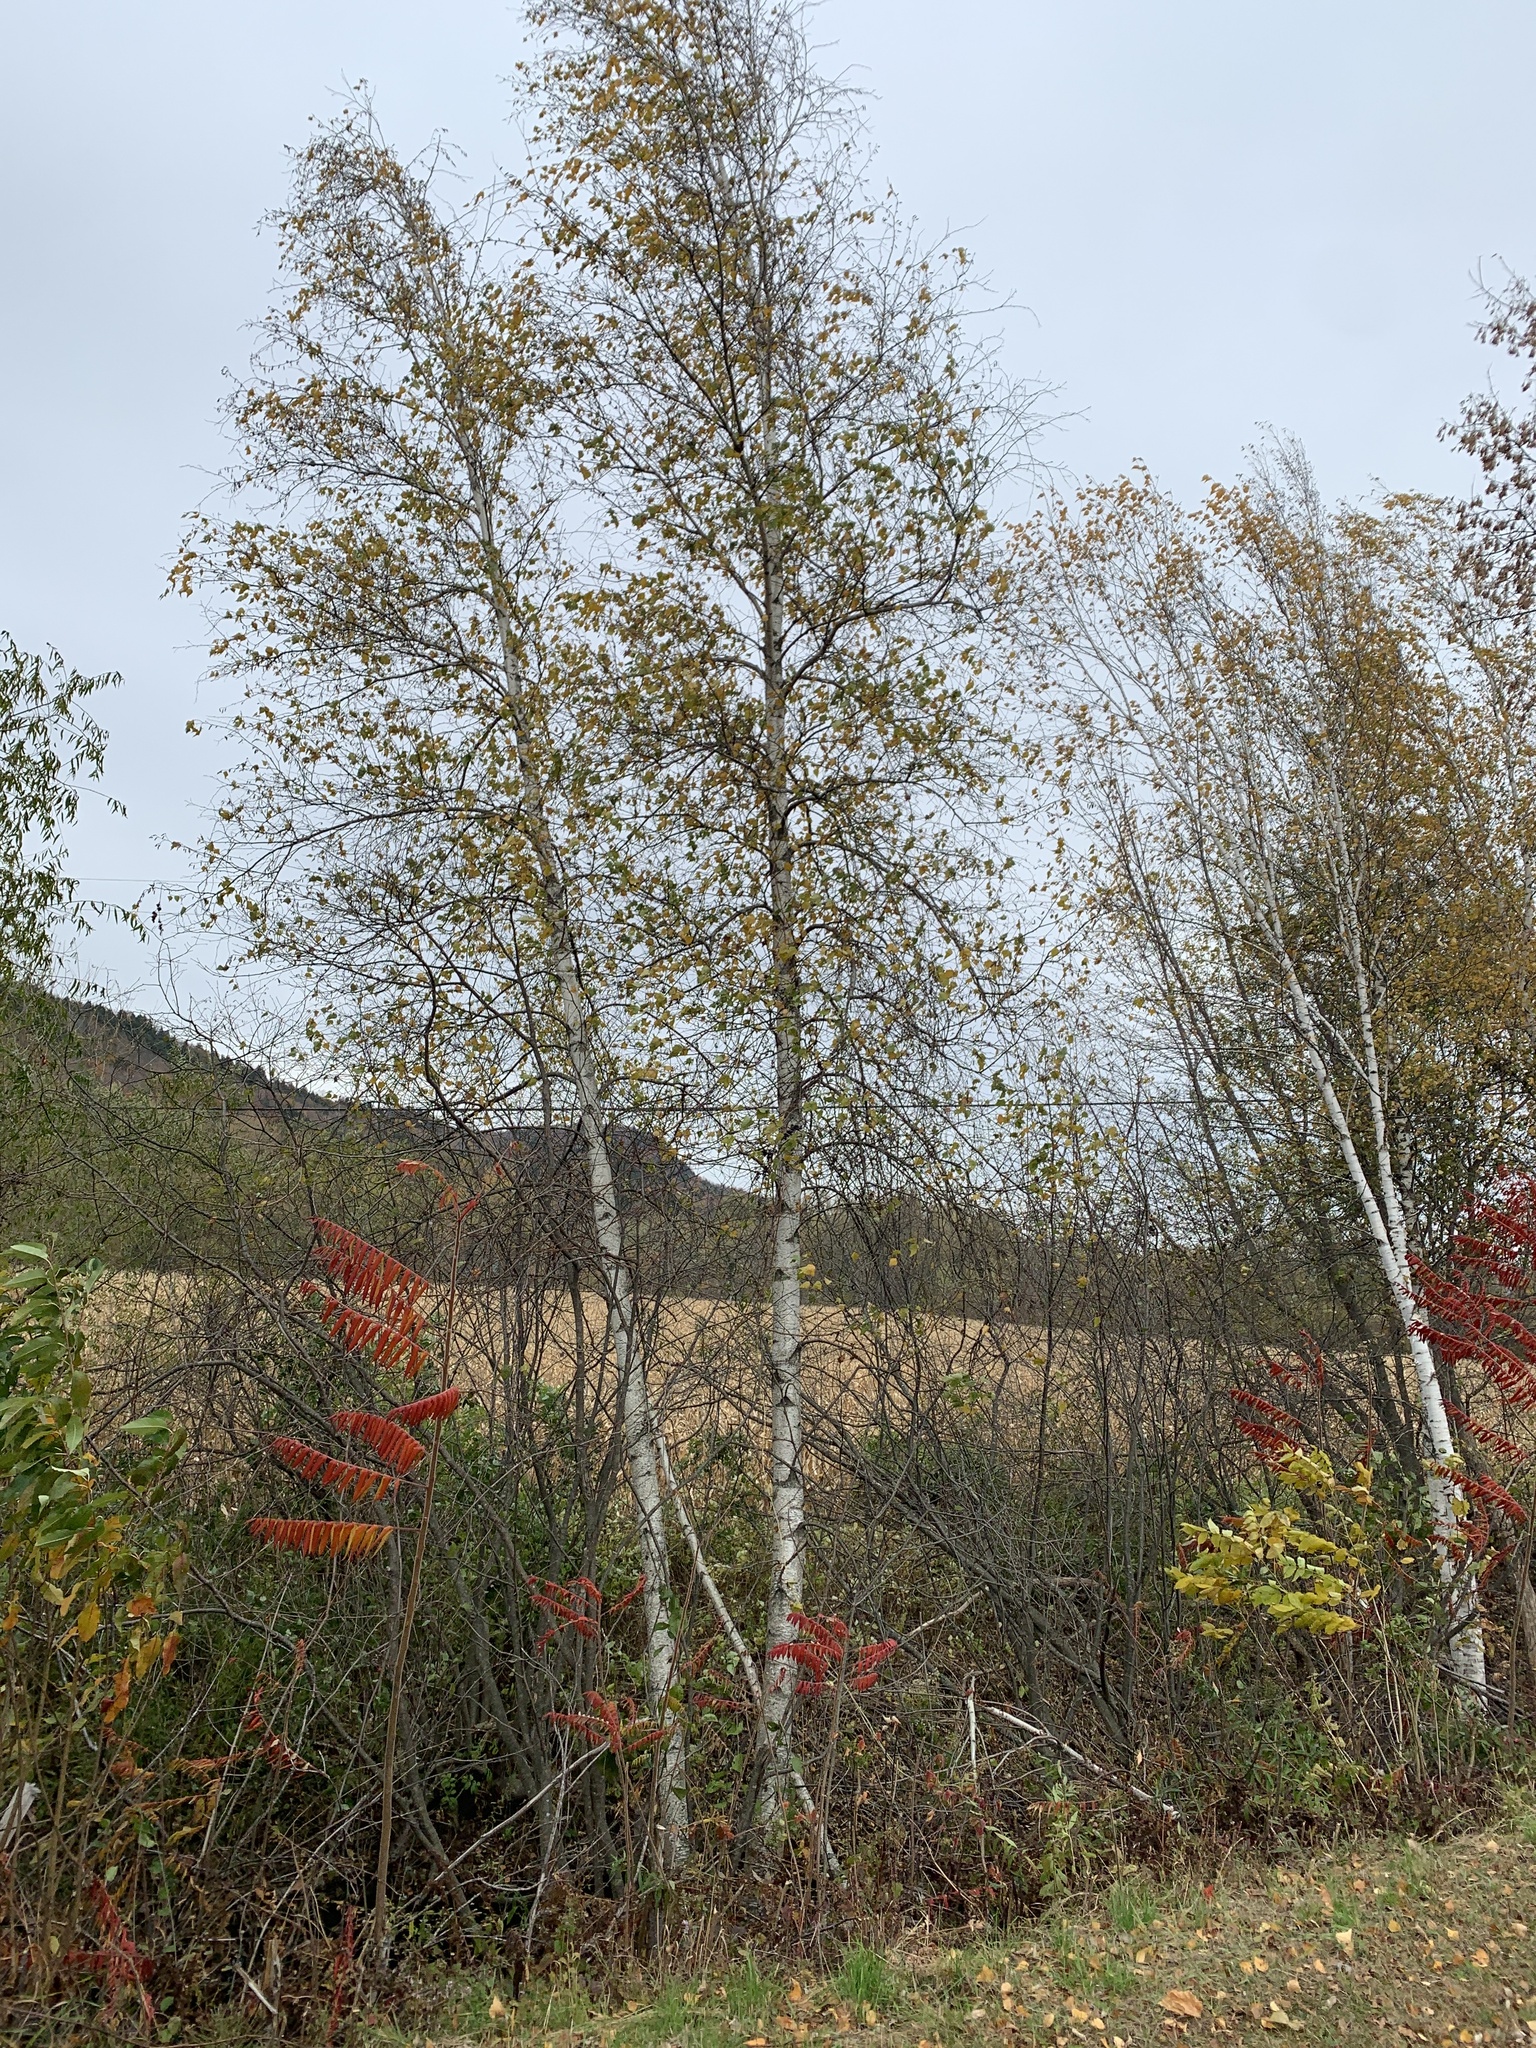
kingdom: Plantae
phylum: Tracheophyta
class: Magnoliopsida
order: Fagales
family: Betulaceae
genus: Betula
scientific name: Betula populifolia
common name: Fire birch
